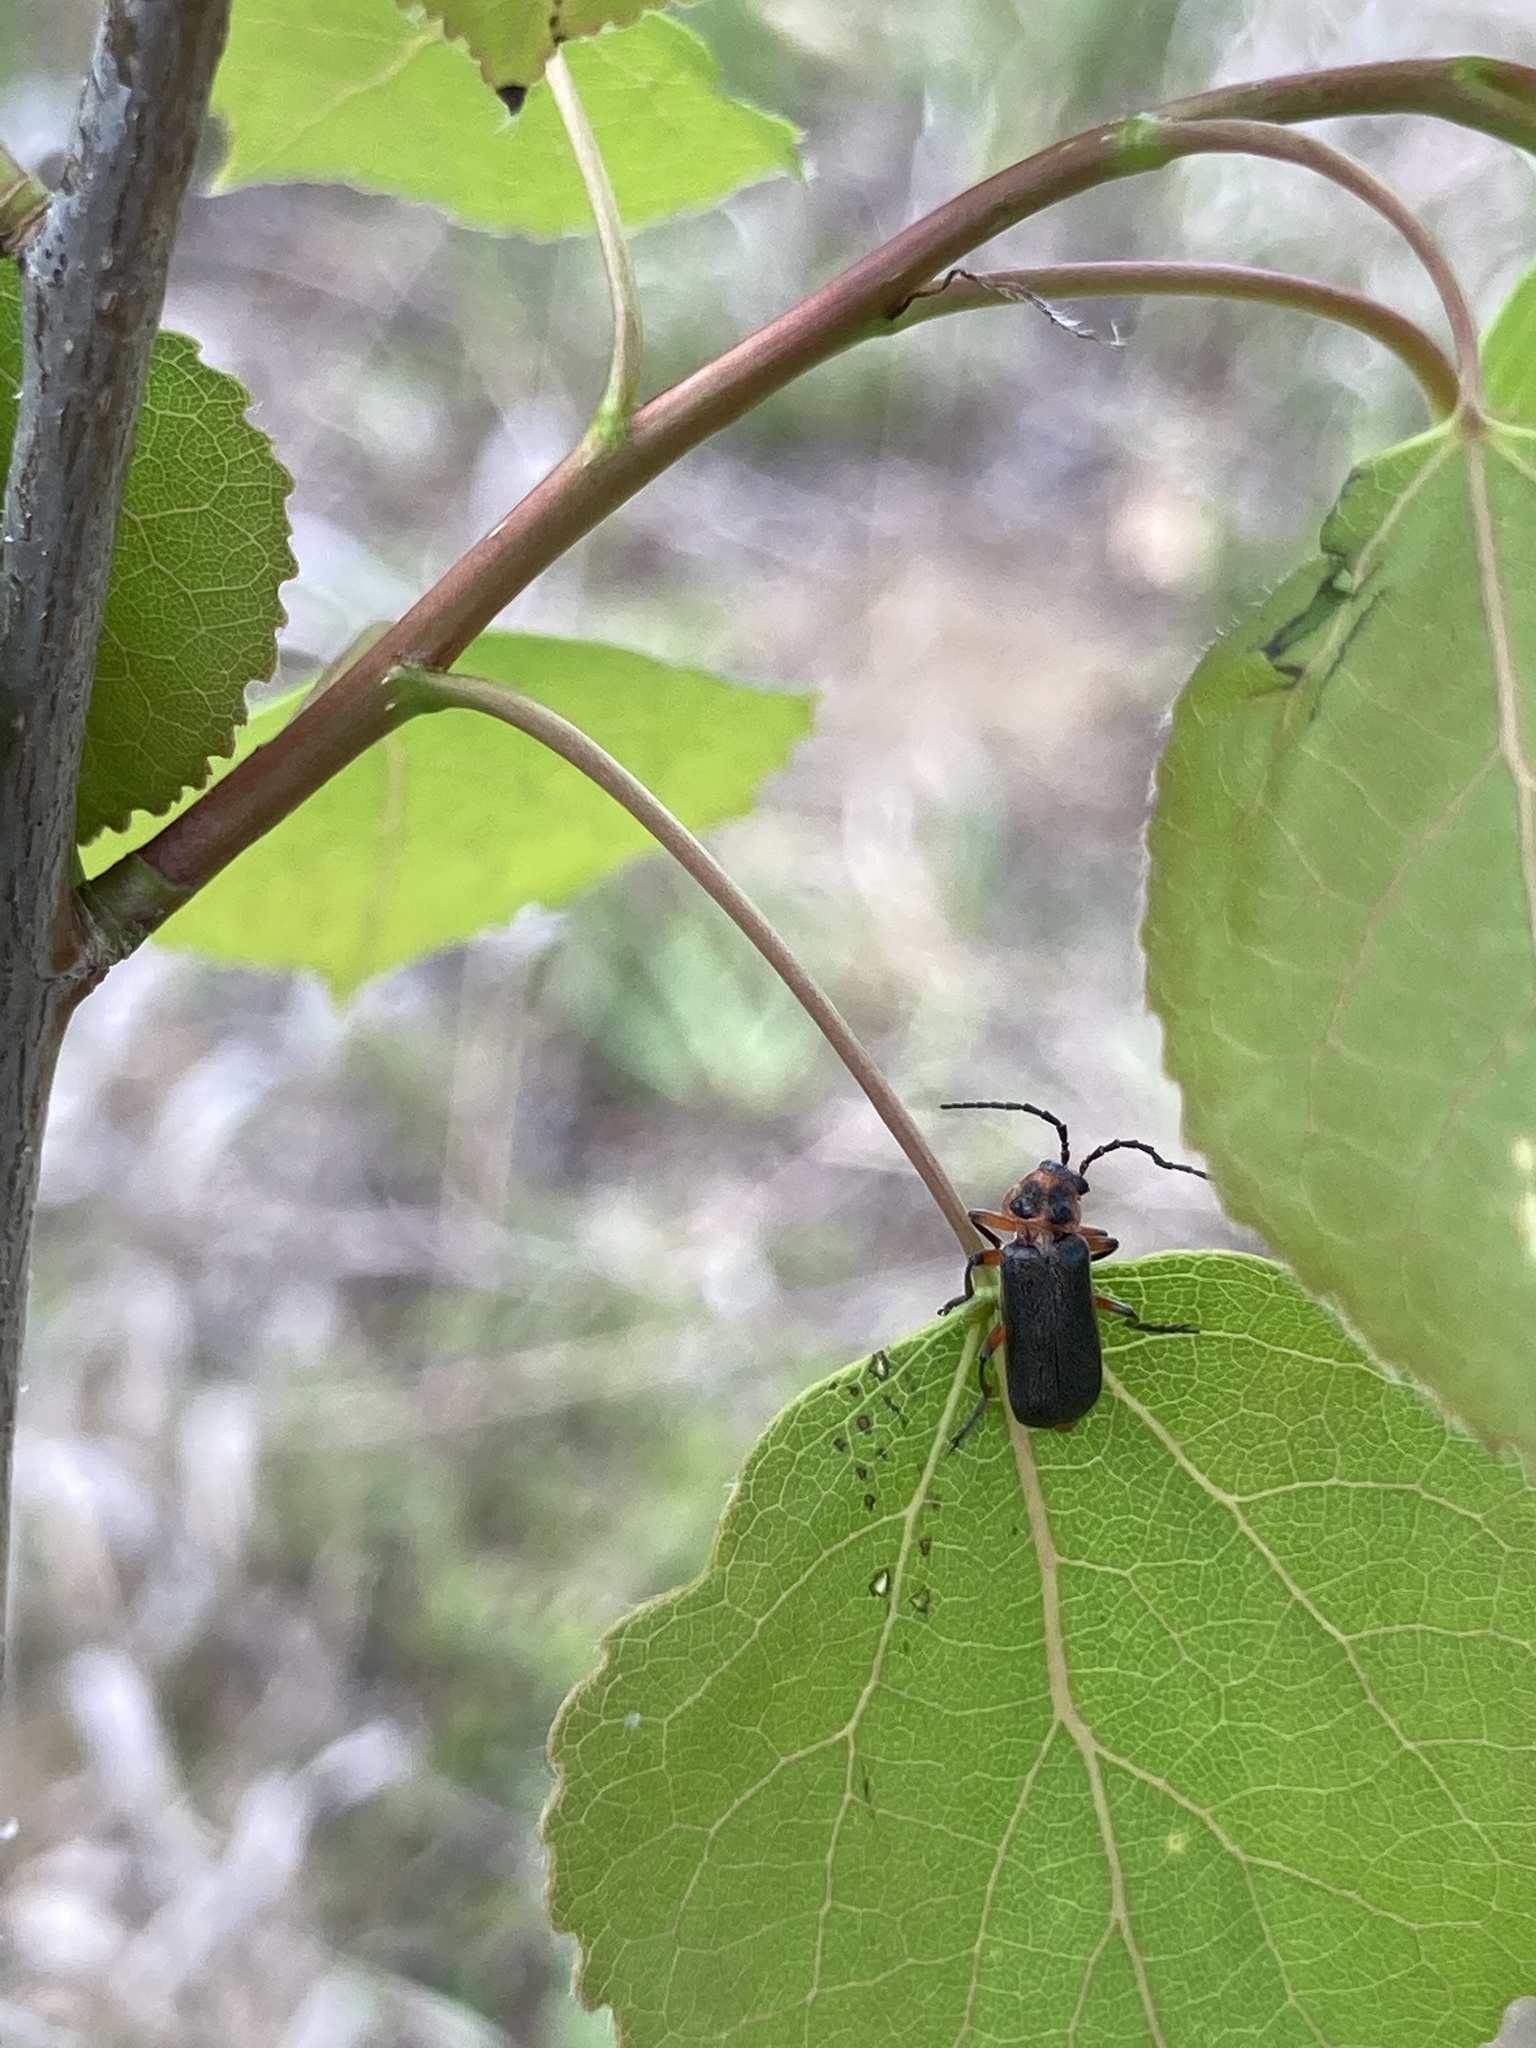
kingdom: Animalia
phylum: Arthropoda
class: Insecta
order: Coleoptera
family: Cantharidae
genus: Atalantycha
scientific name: Atalantycha bilineata
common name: Two-lined leatherwing
